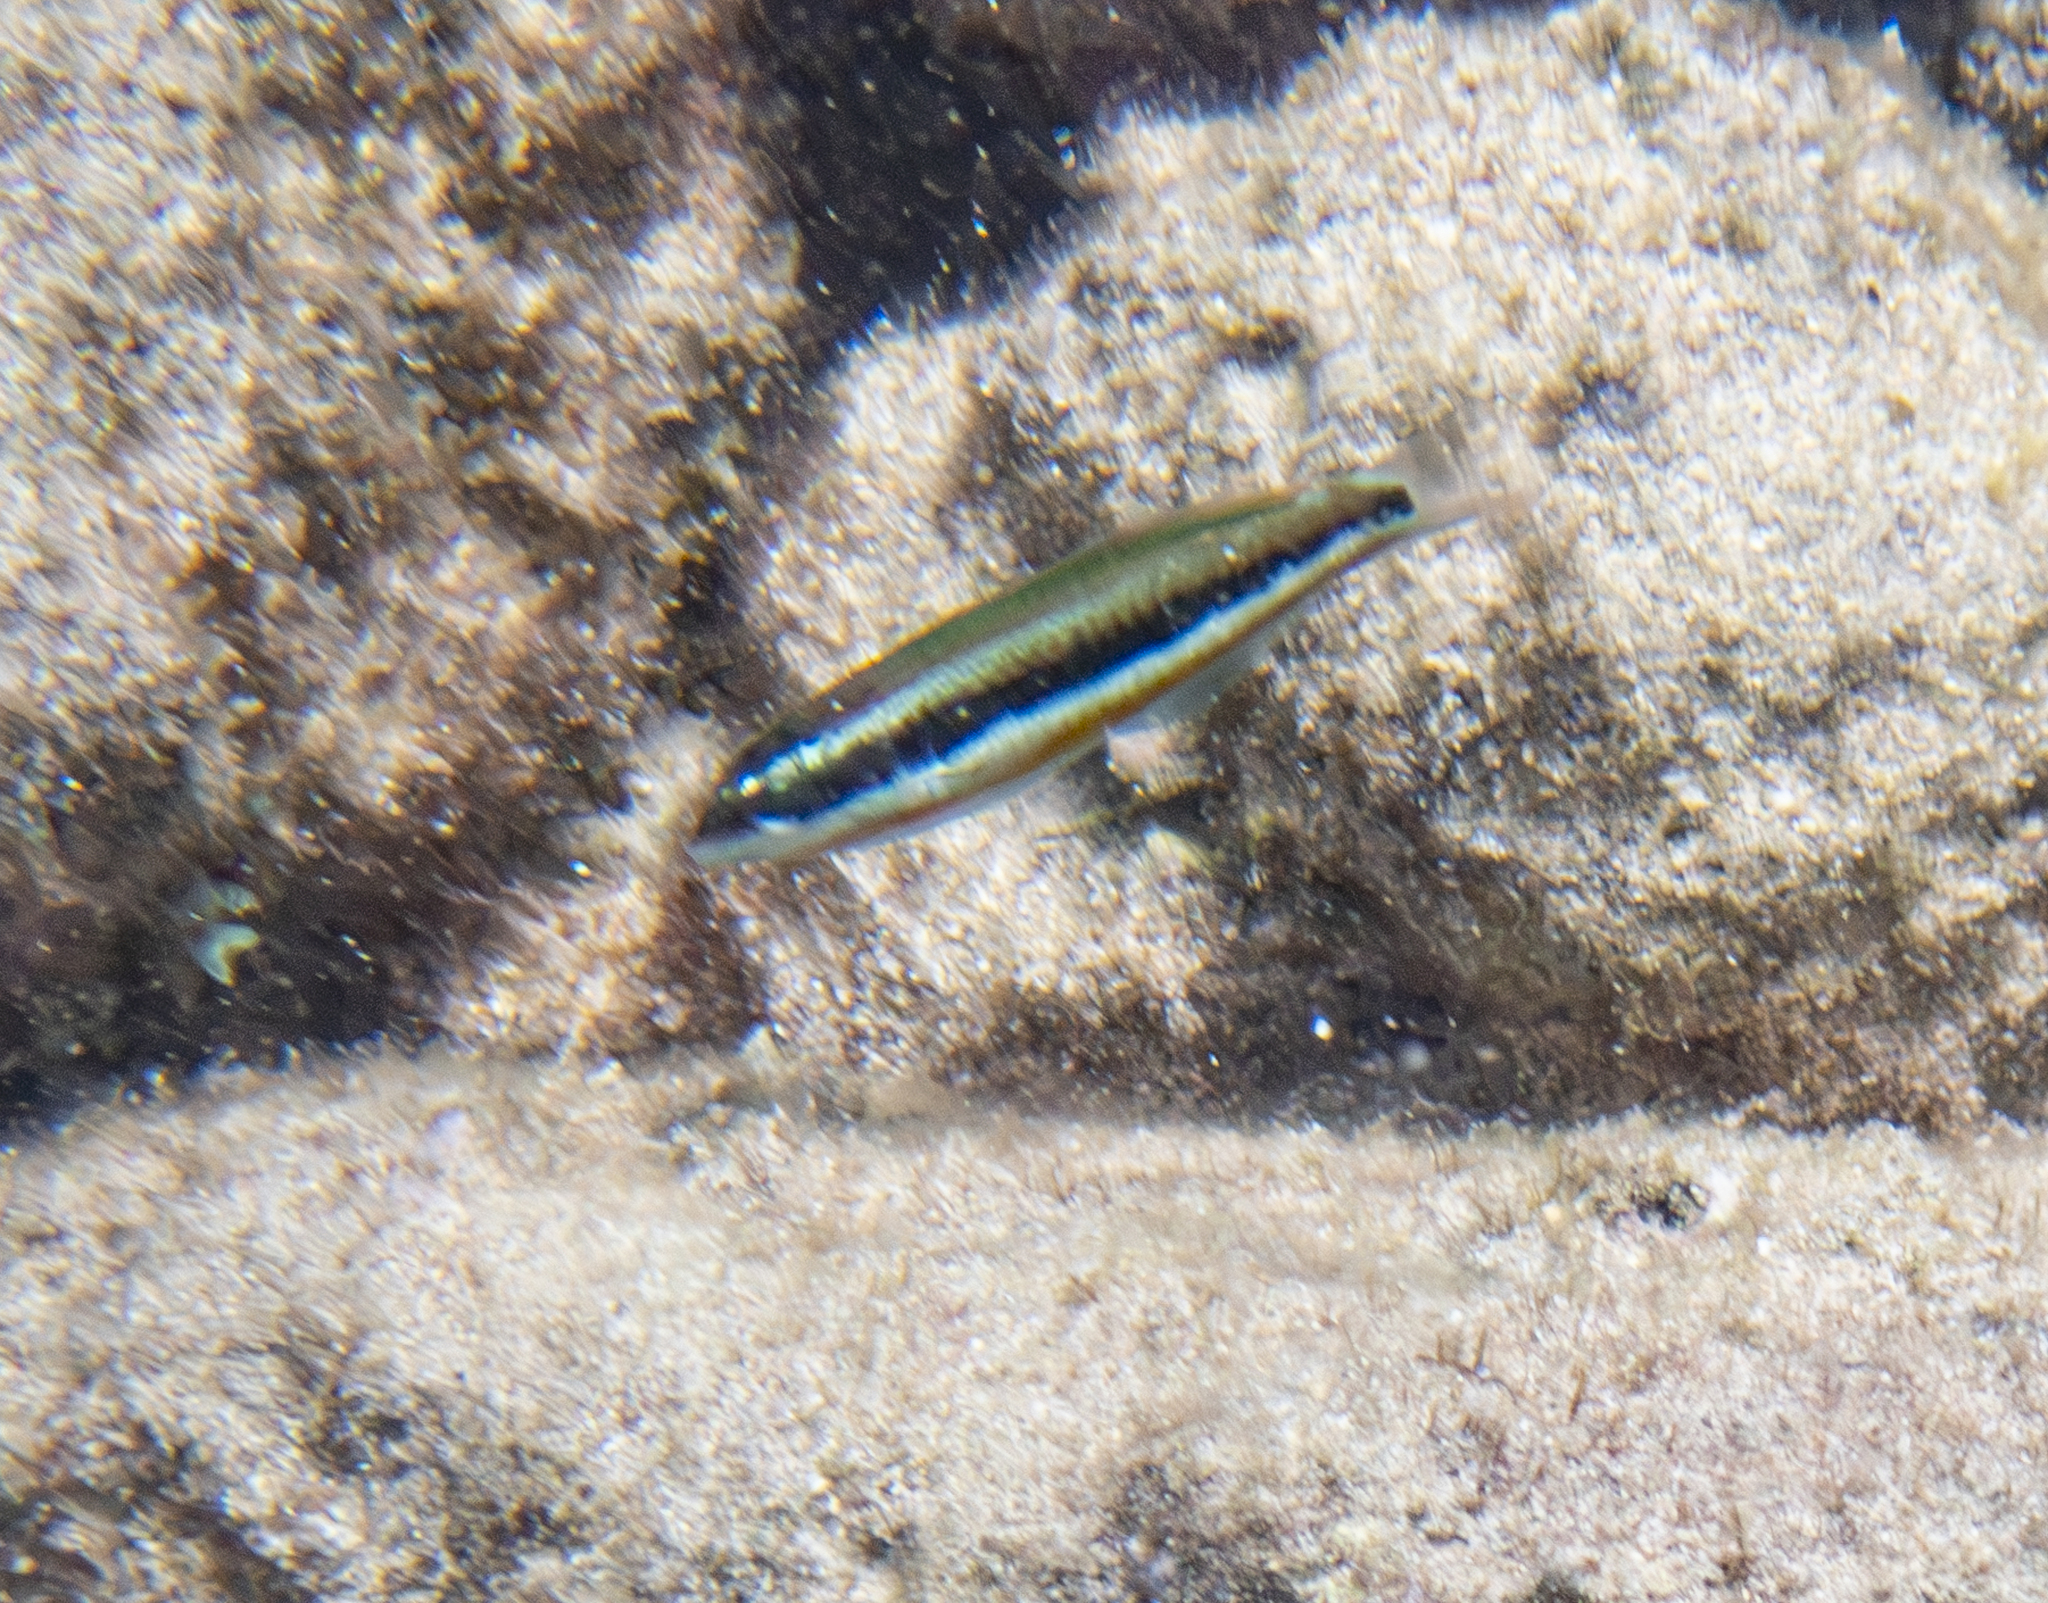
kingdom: Animalia
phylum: Chordata
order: Perciformes
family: Labridae
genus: Thalassoma
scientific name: Thalassoma duperrey
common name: Saddle wrasse
